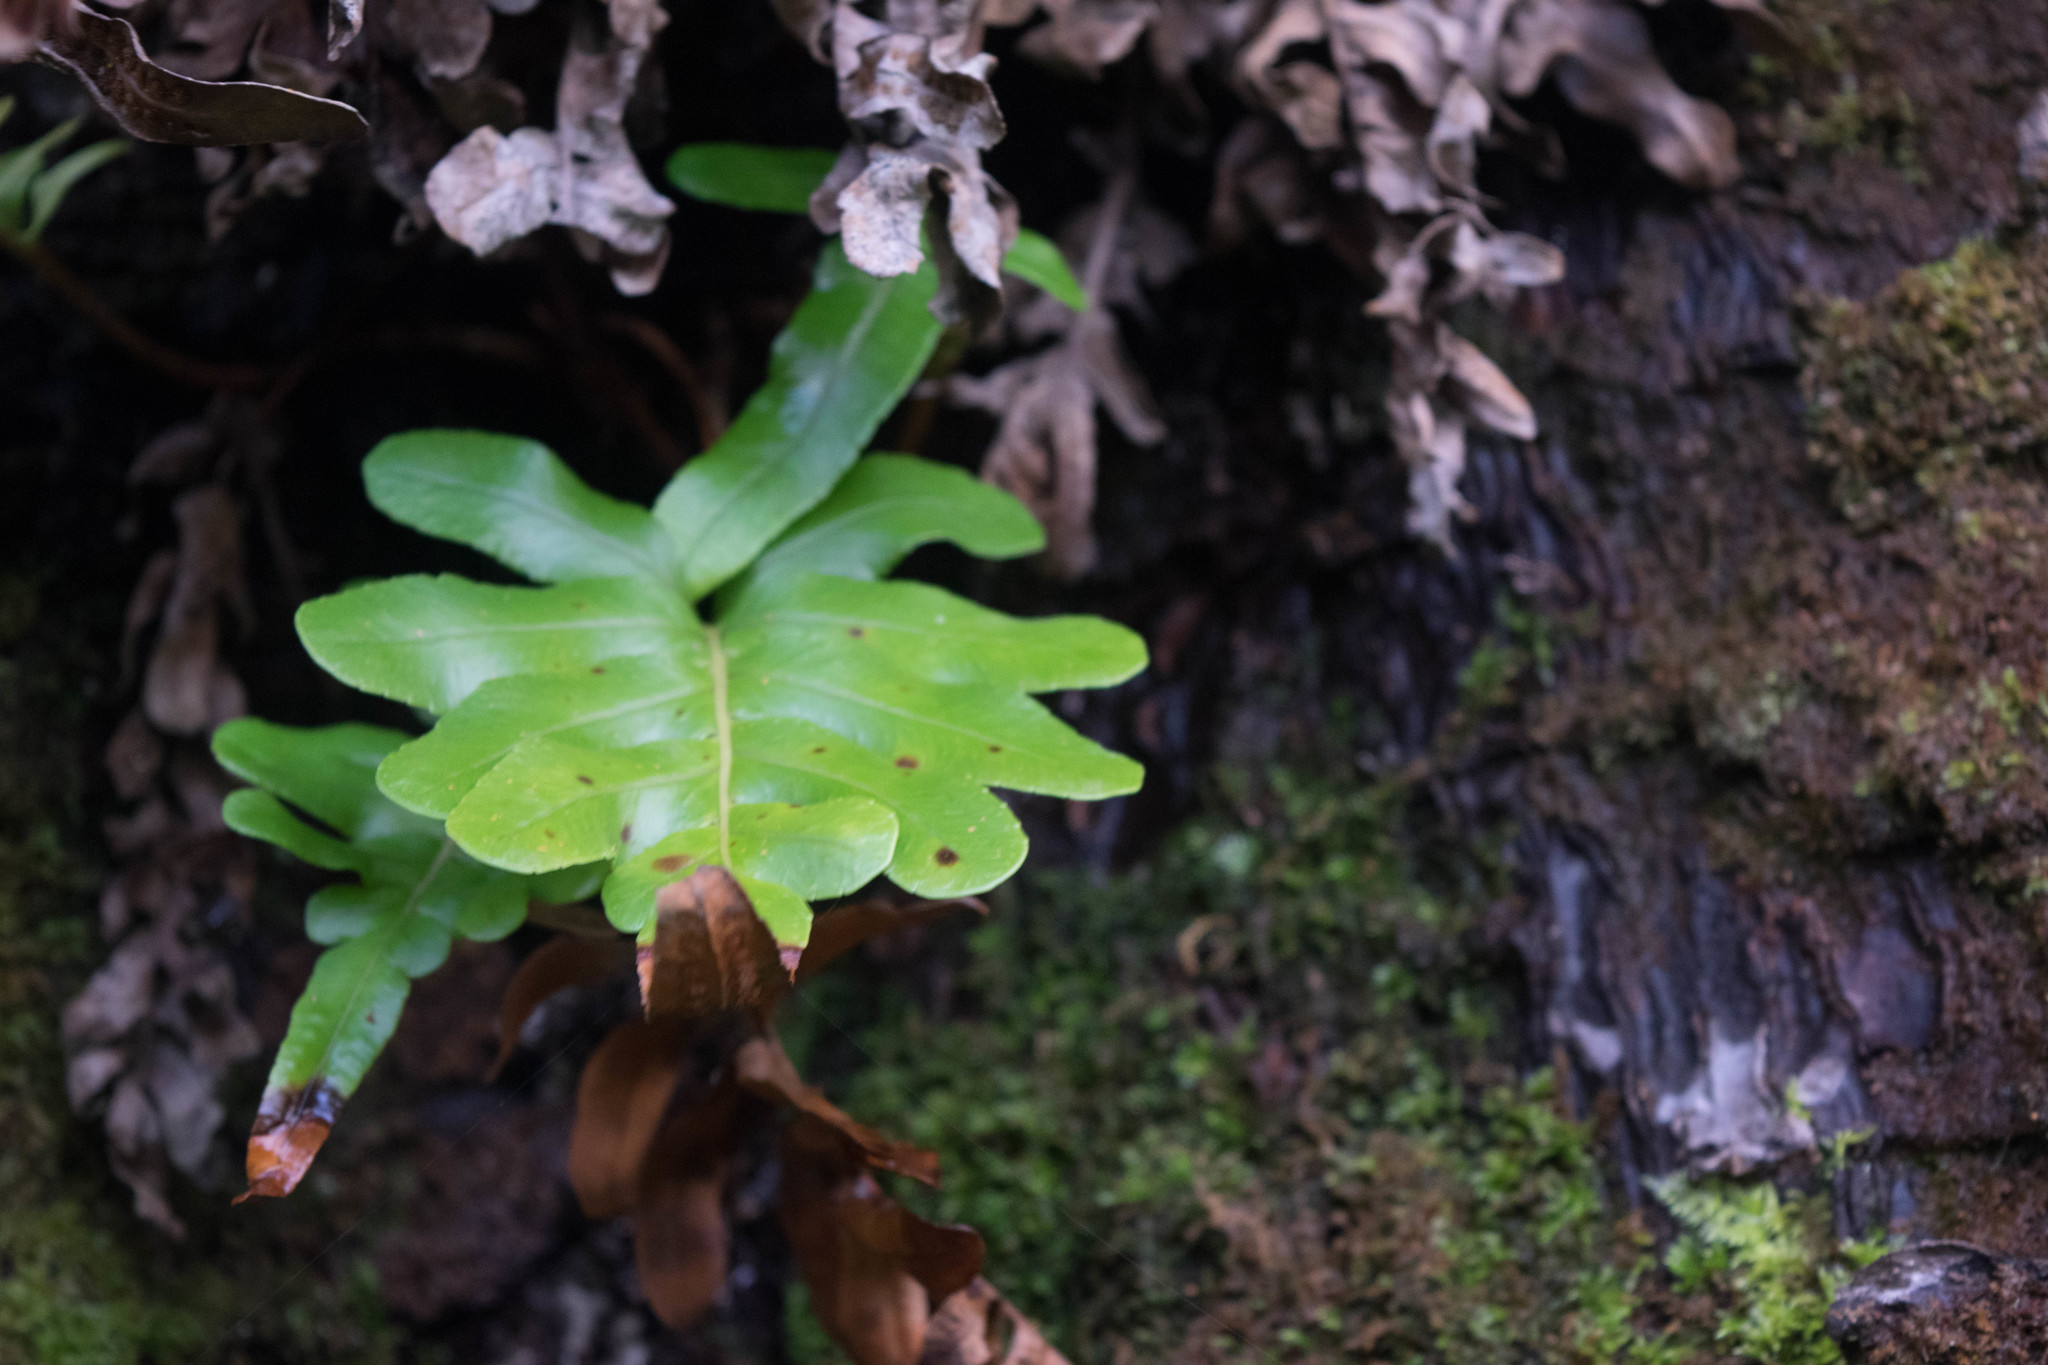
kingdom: Plantae
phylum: Tracheophyta
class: Polypodiopsida
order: Polypodiales
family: Polypodiaceae
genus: Polypodium
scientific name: Polypodium scouleri
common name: Scouler's polypody
